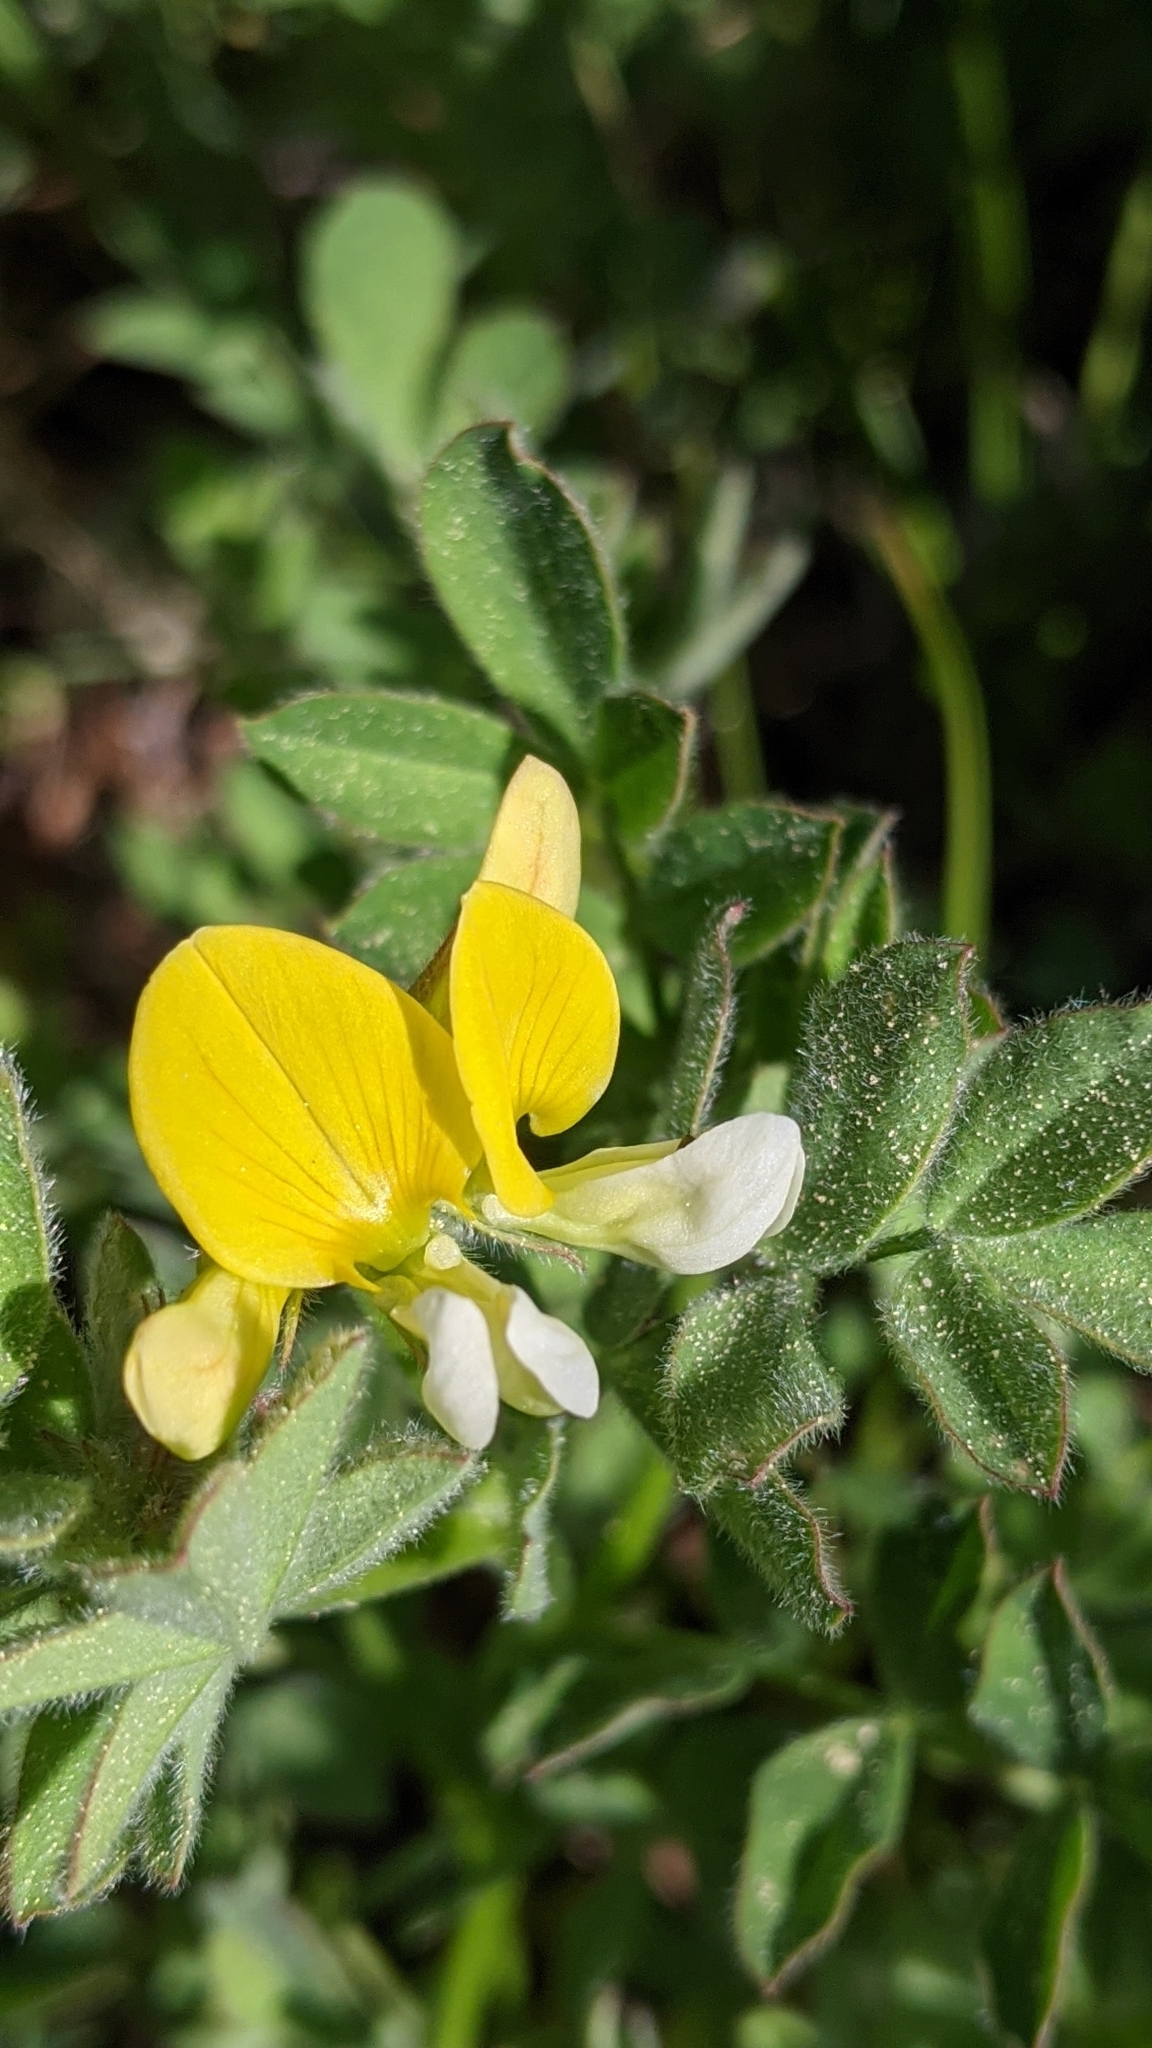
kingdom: Plantae
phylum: Tracheophyta
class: Magnoliopsida
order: Fabales
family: Fabaceae
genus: Hosackia
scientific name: Hosackia oblongifolia
